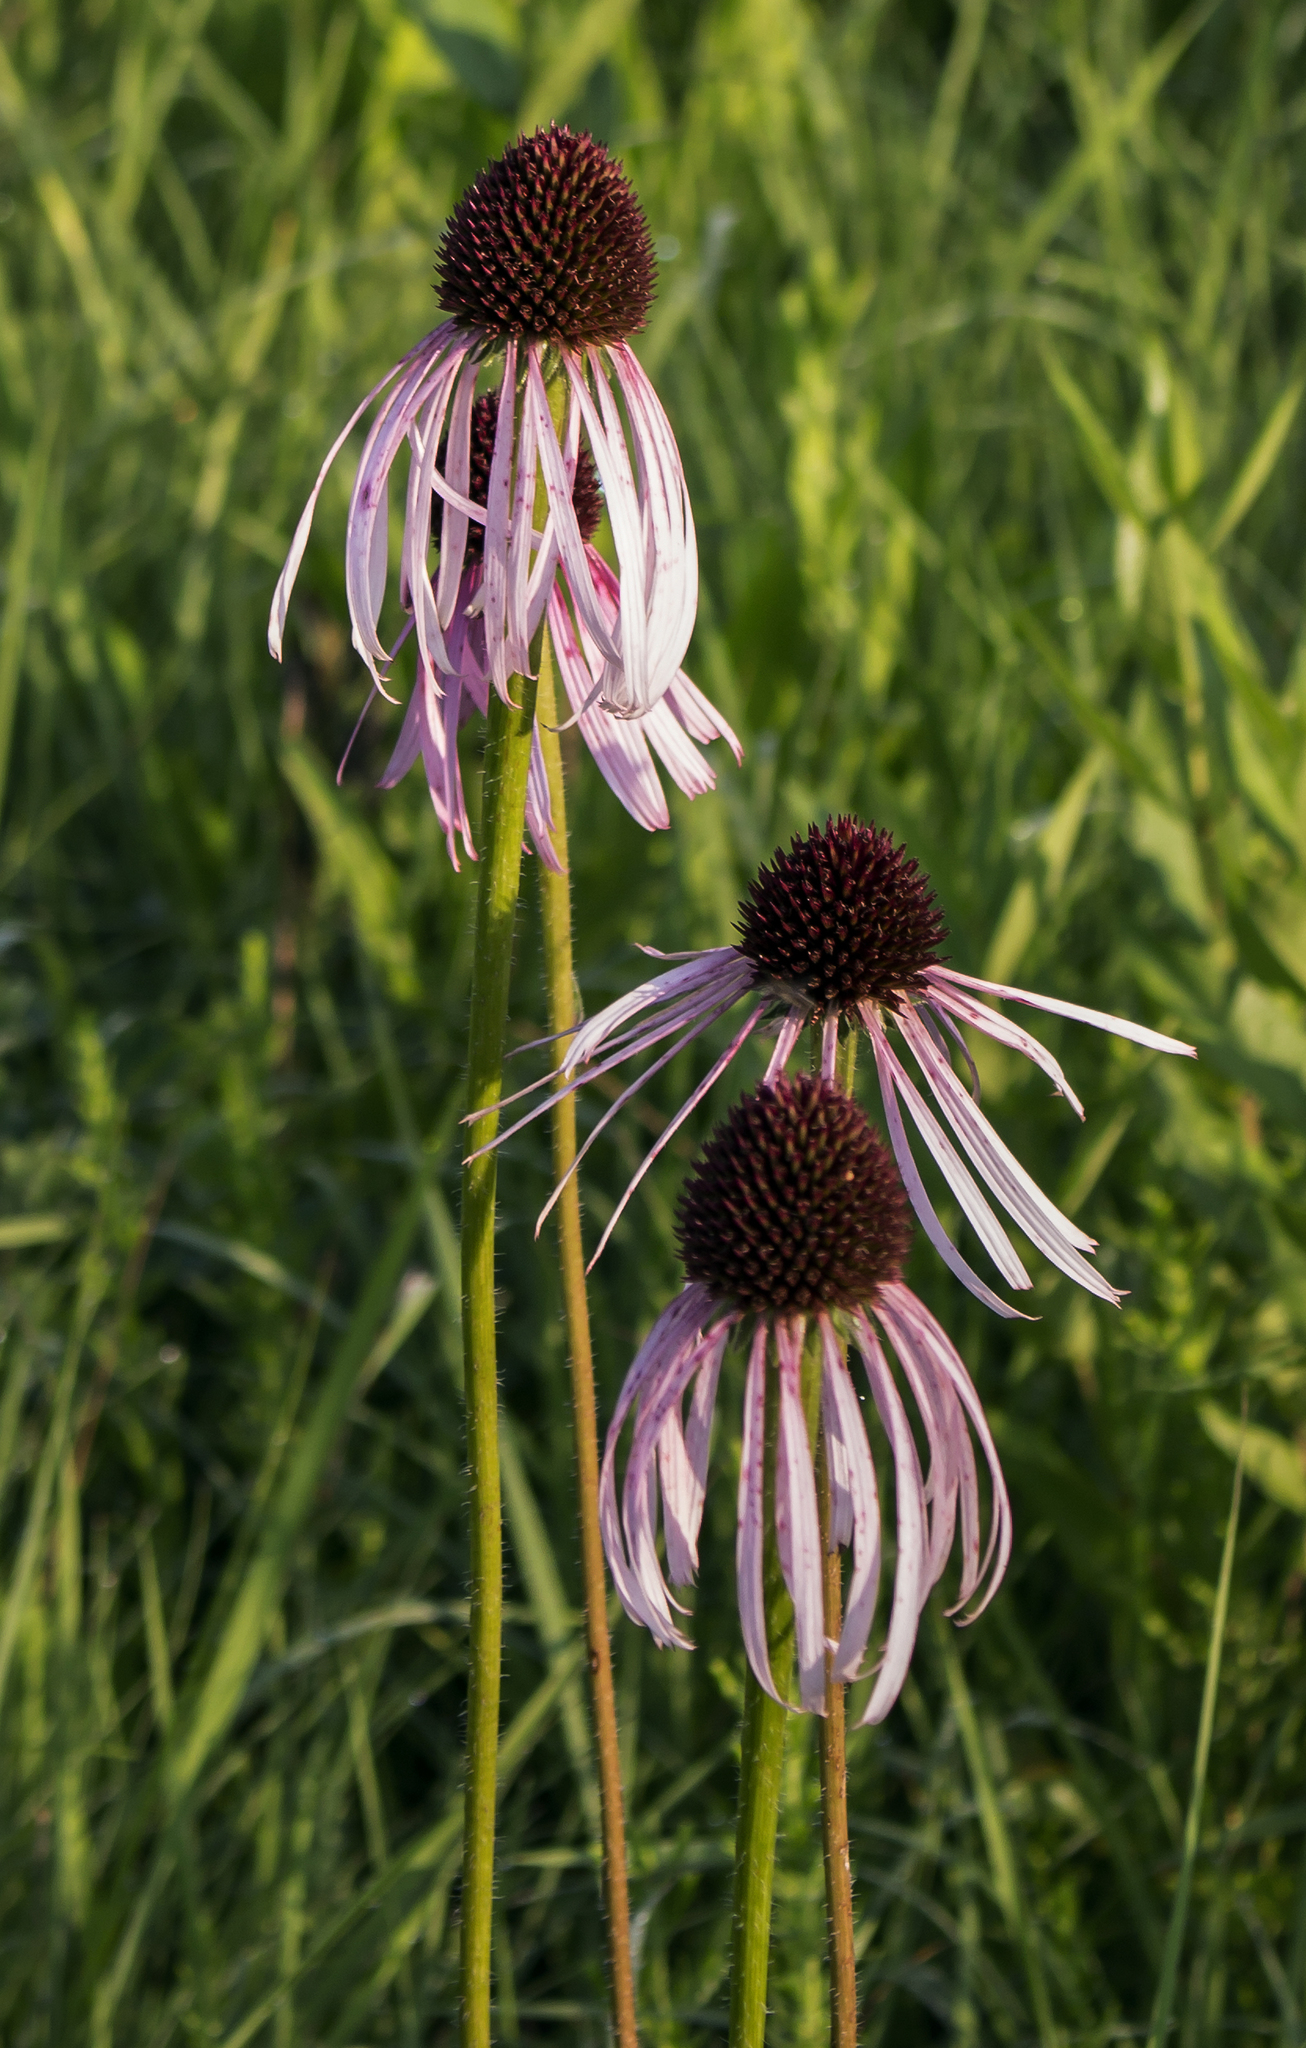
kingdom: Plantae
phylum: Tracheophyta
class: Magnoliopsida
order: Asterales
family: Asteraceae
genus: Echinacea
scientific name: Echinacea pallida
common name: Pale echinacea
